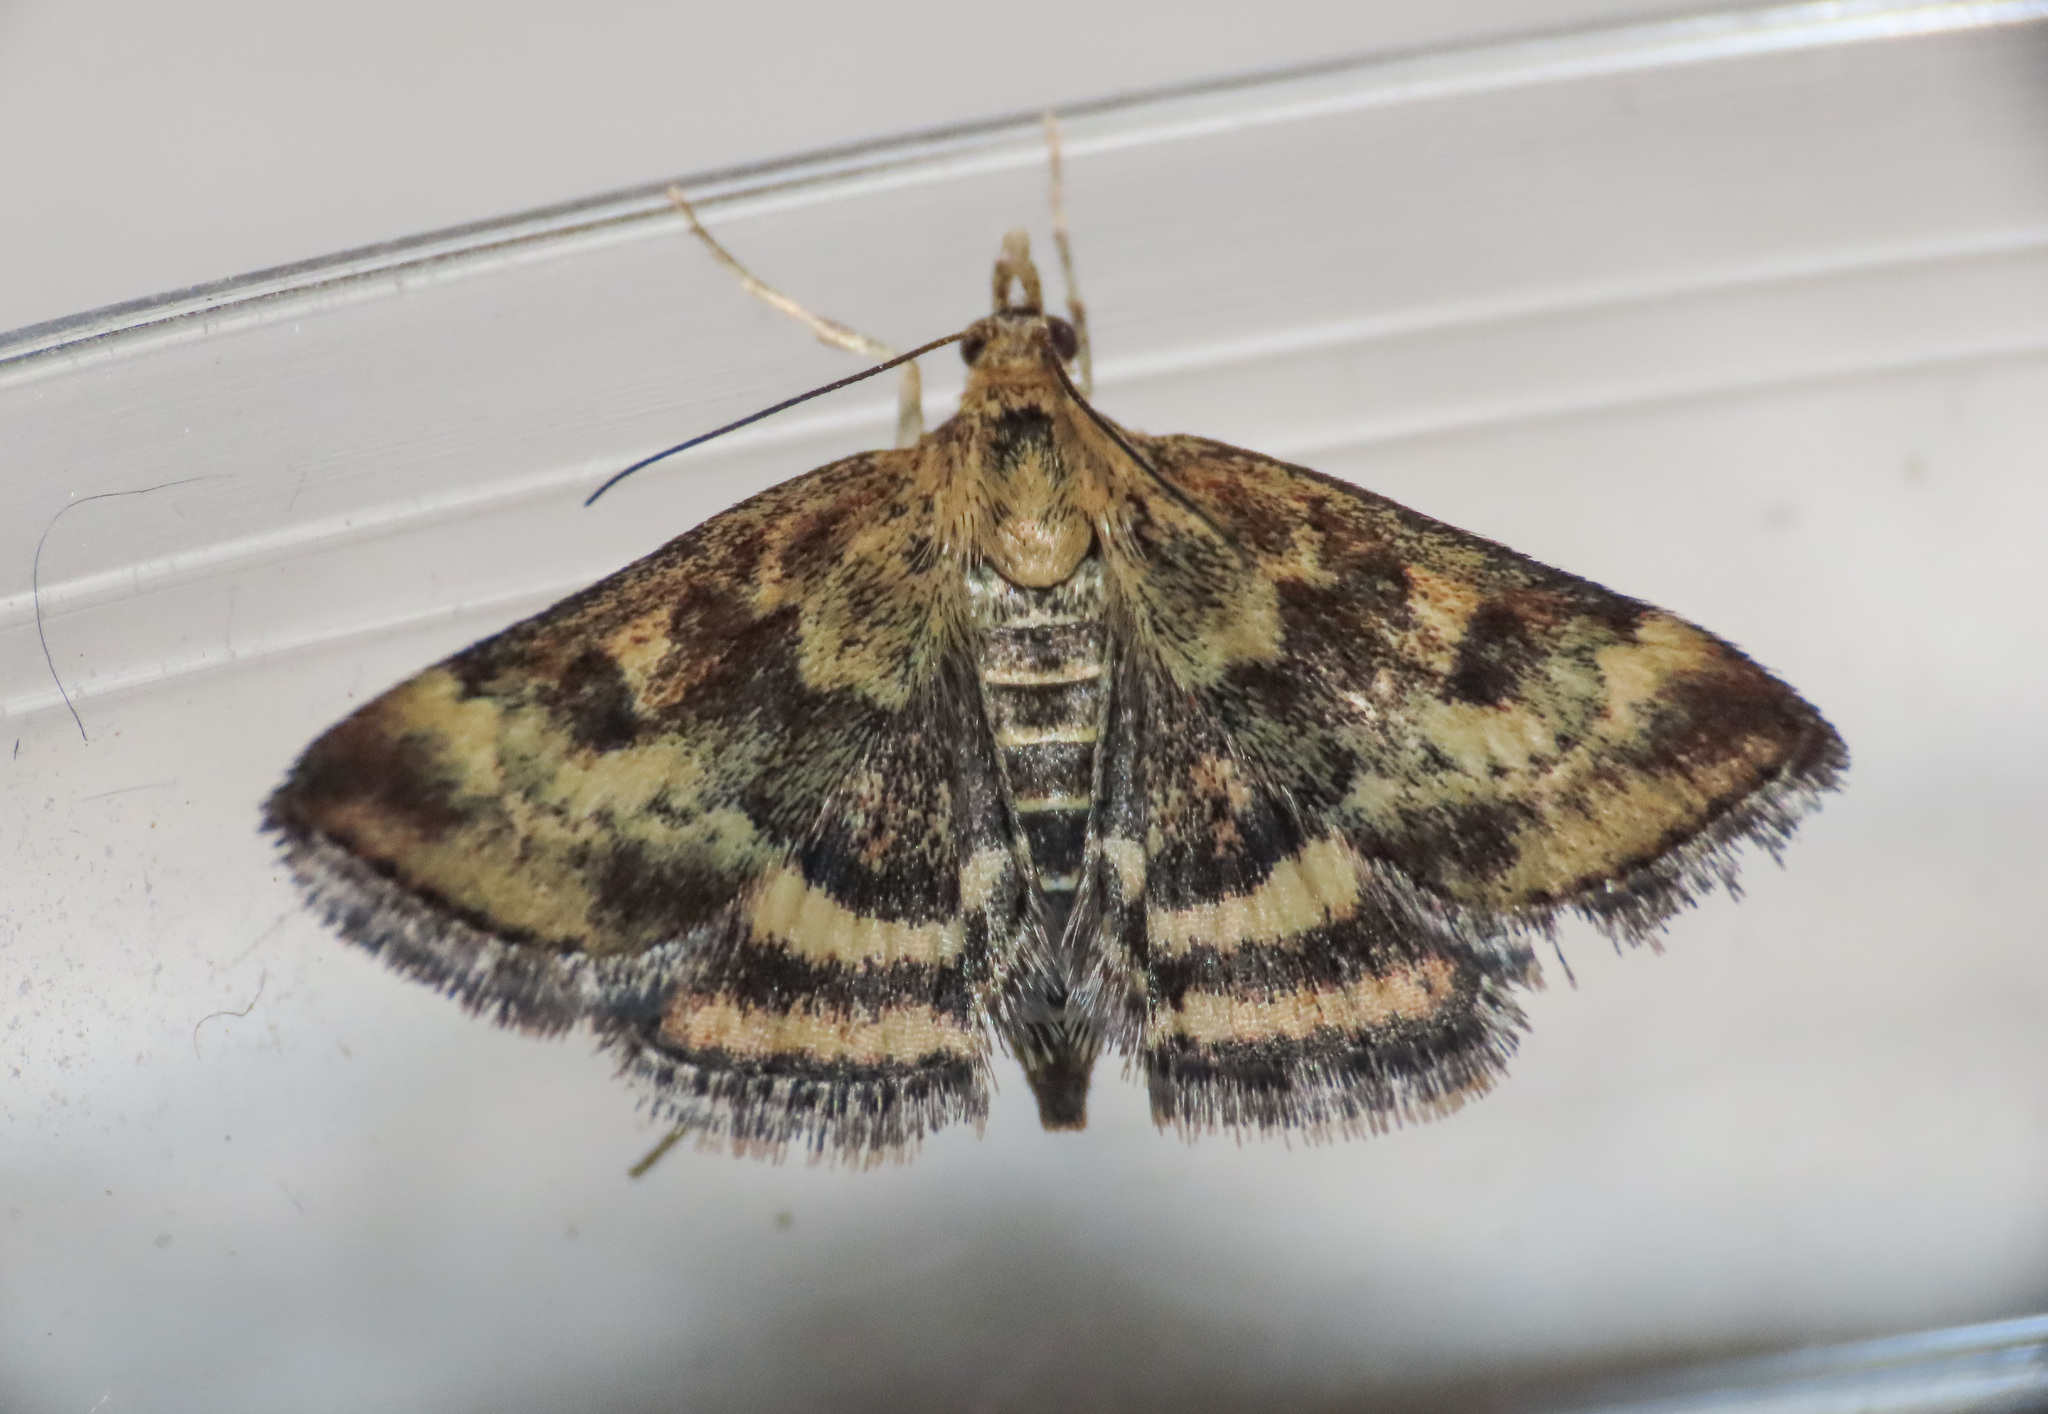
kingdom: Animalia
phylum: Arthropoda
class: Insecta
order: Lepidoptera
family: Crambidae
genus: Pyrausta
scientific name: Pyrausta despicata
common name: Straw-barred pearl
